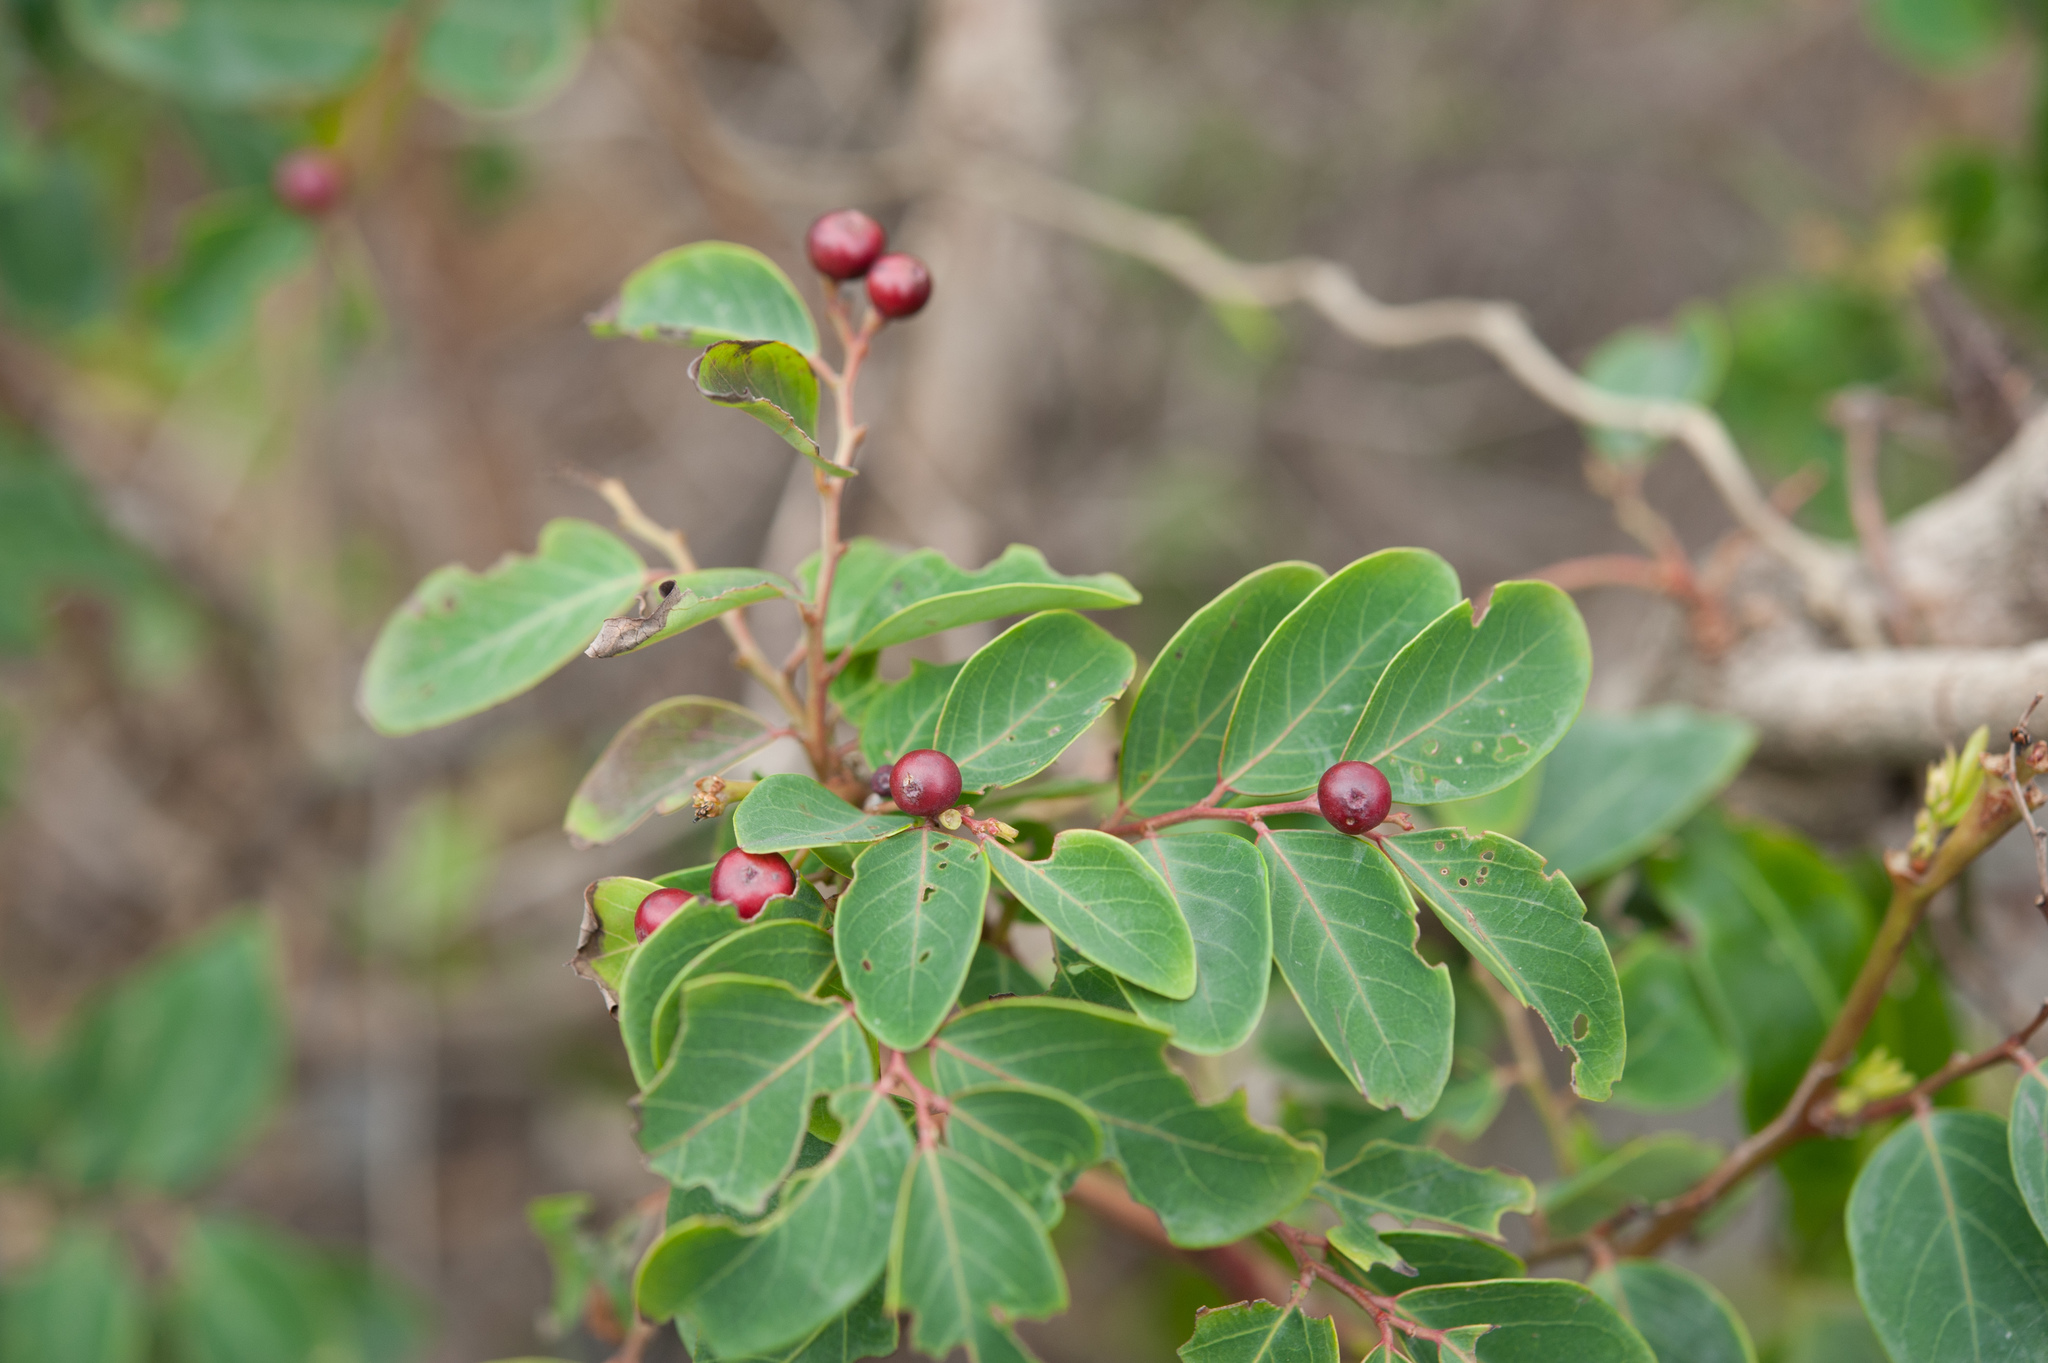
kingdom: Plantae
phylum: Tracheophyta
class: Magnoliopsida
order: Malpighiales
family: Phyllanthaceae
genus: Breynia
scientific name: Breynia vitis-idaea
